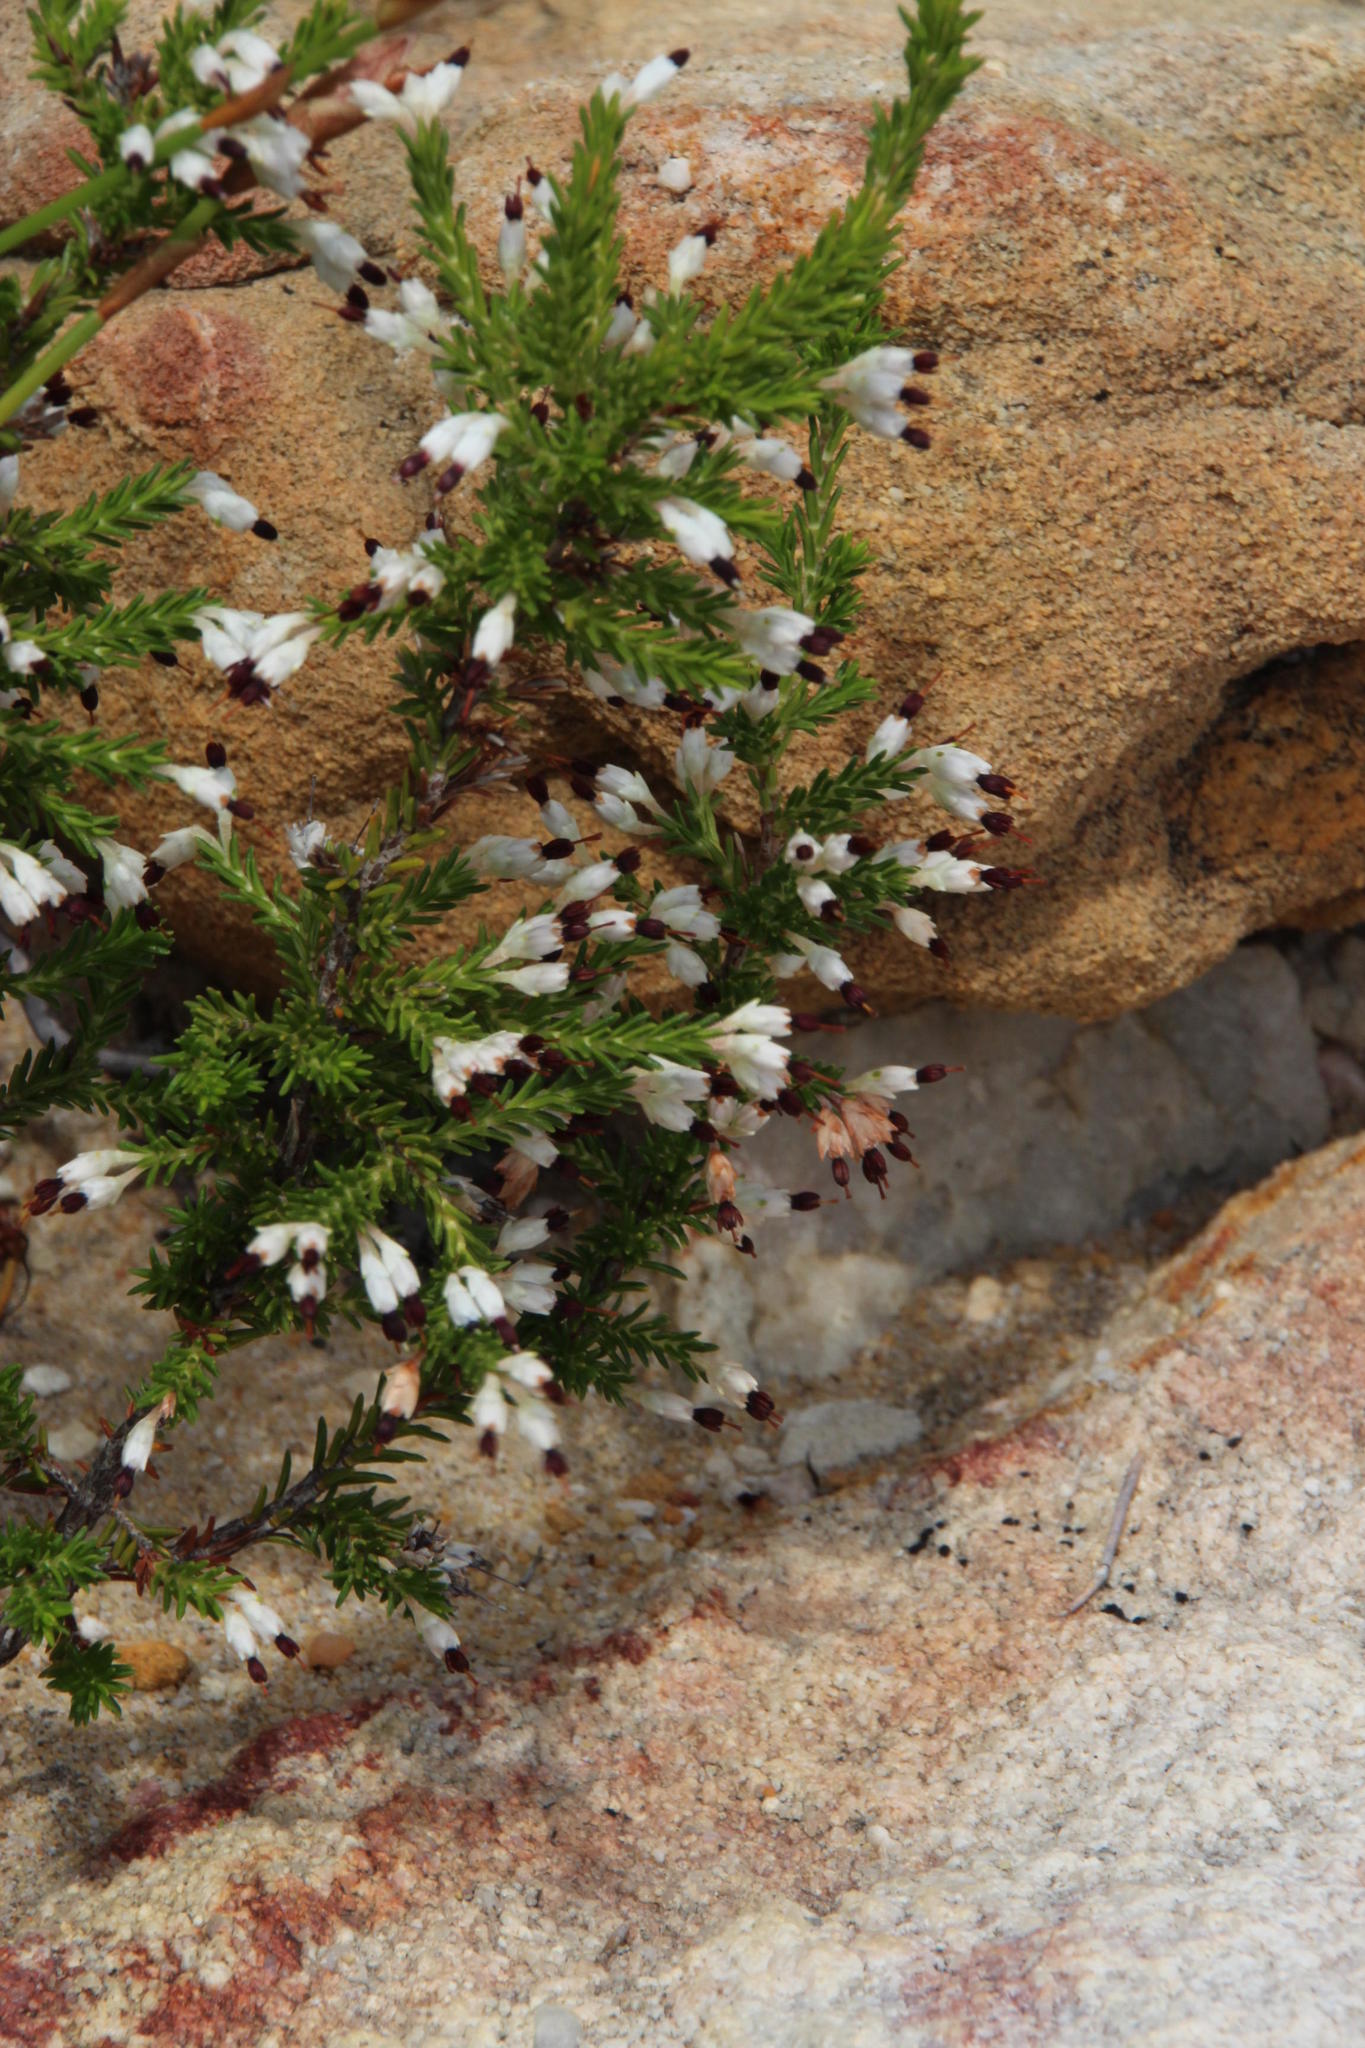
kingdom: Plantae
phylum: Tracheophyta
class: Magnoliopsida
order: Ericales
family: Ericaceae
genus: Erica
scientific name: Erica imbricata
